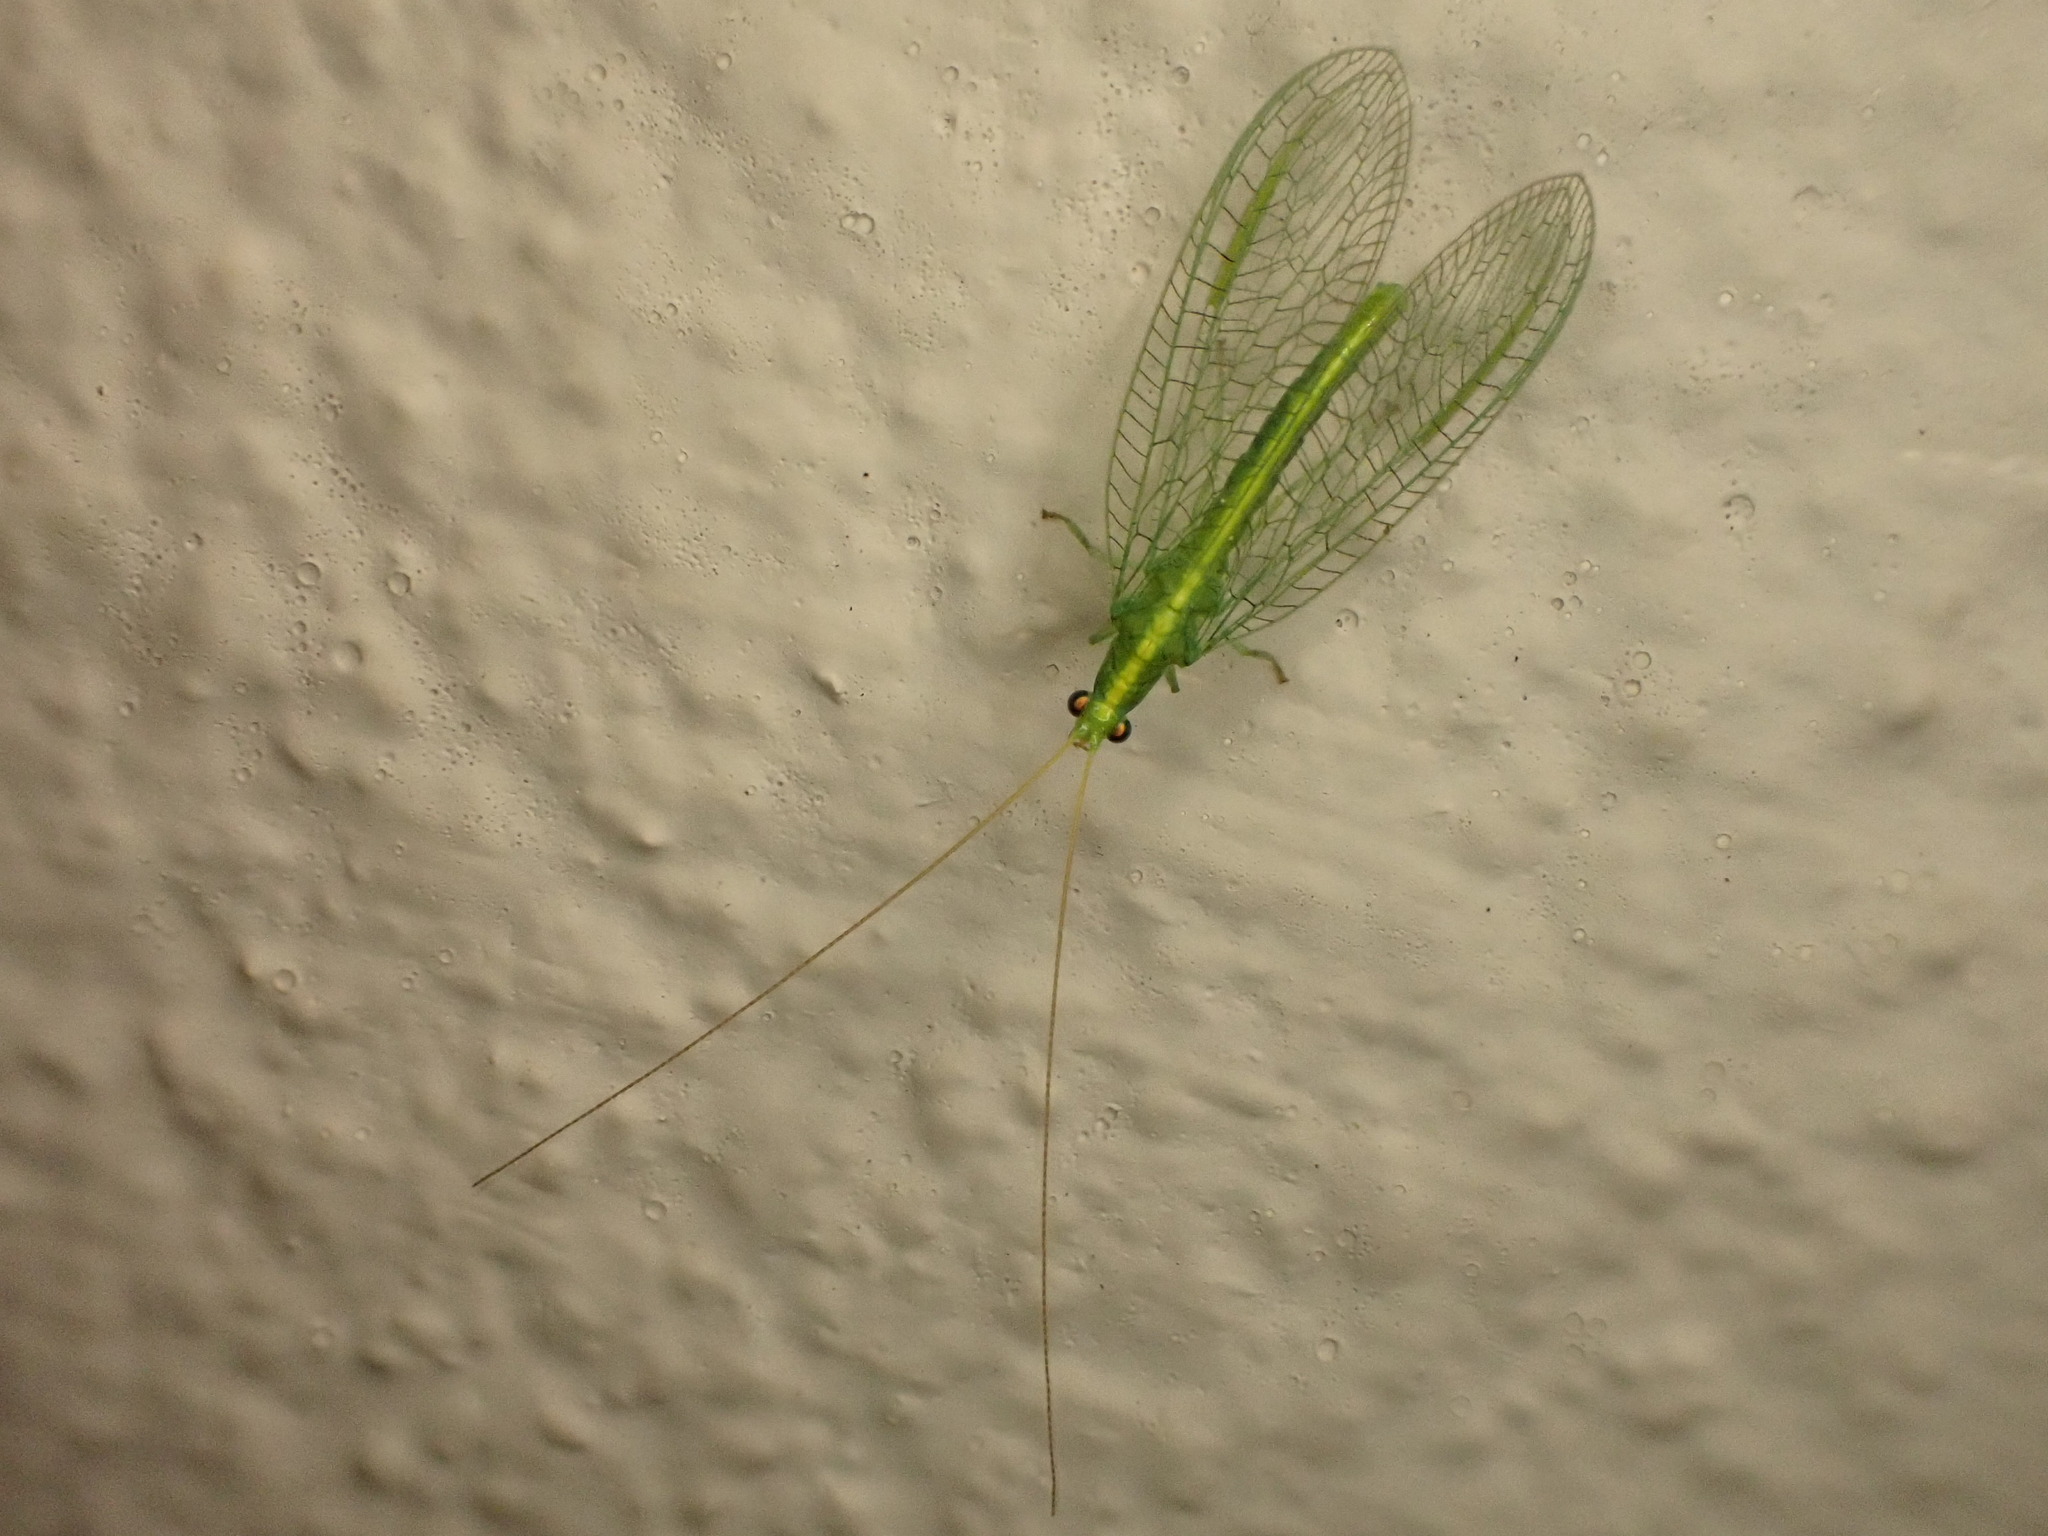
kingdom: Animalia
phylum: Arthropoda
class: Insecta
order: Neuroptera
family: Chrysopidae
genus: Mallada
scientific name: Mallada basalis
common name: Green lacewing
